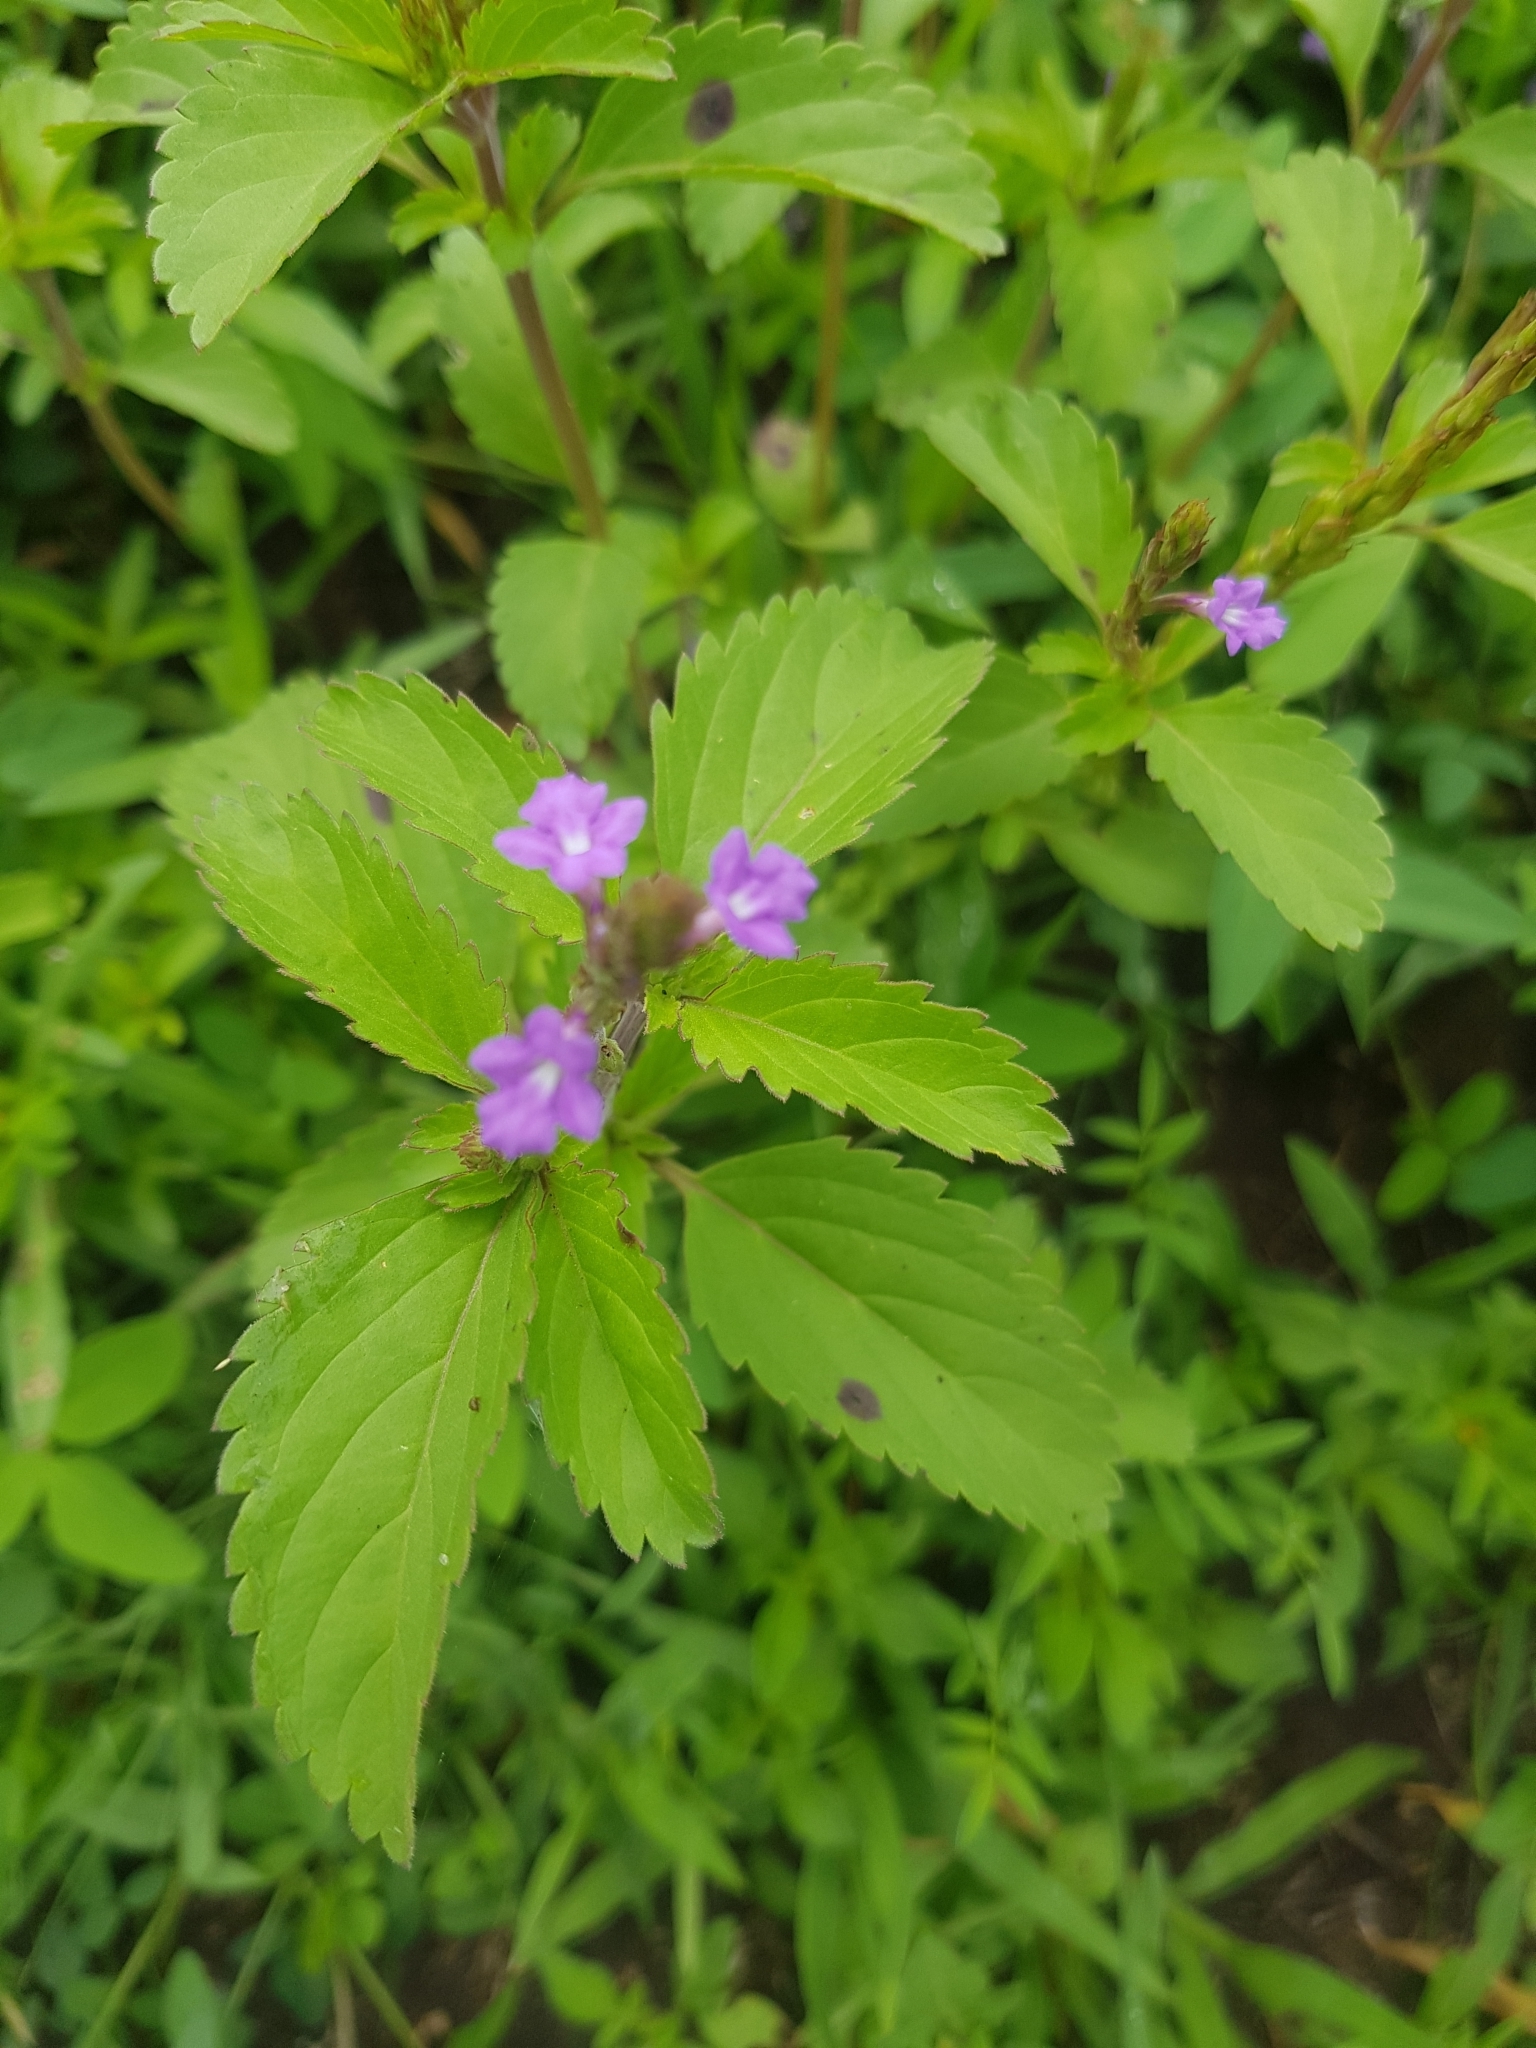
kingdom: Plantae
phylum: Tracheophyta
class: Magnoliopsida
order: Lamiales
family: Verbenaceae
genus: Bouchea
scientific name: Bouchea prismatica
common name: Vervine
